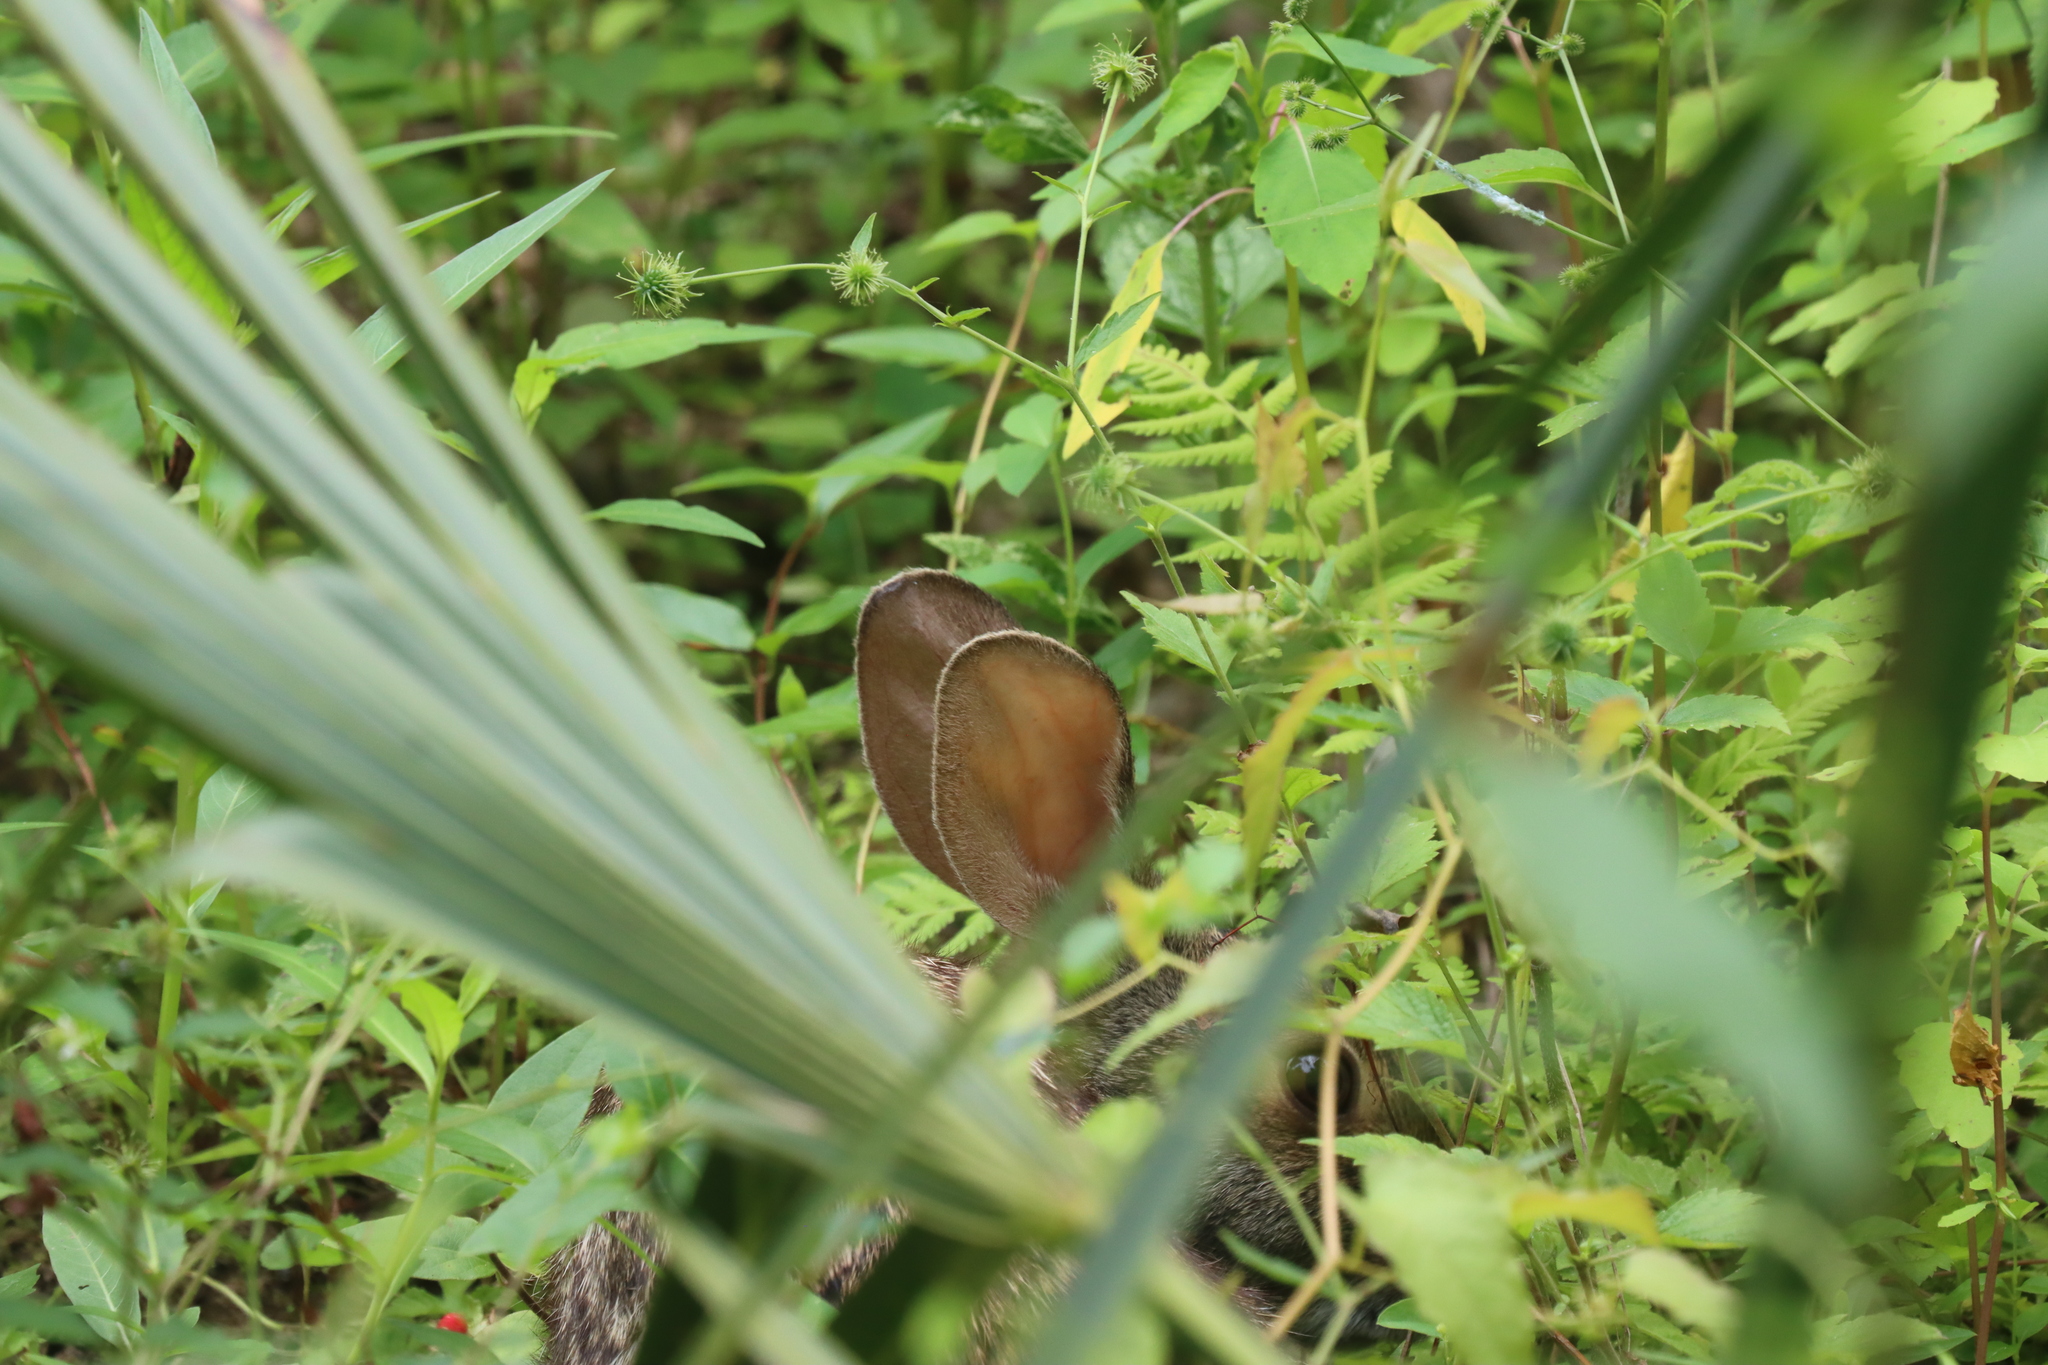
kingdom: Animalia
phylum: Chordata
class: Mammalia
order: Lagomorpha
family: Leporidae
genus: Sylvilagus
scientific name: Sylvilagus aquaticus
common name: Swamp rabbit
